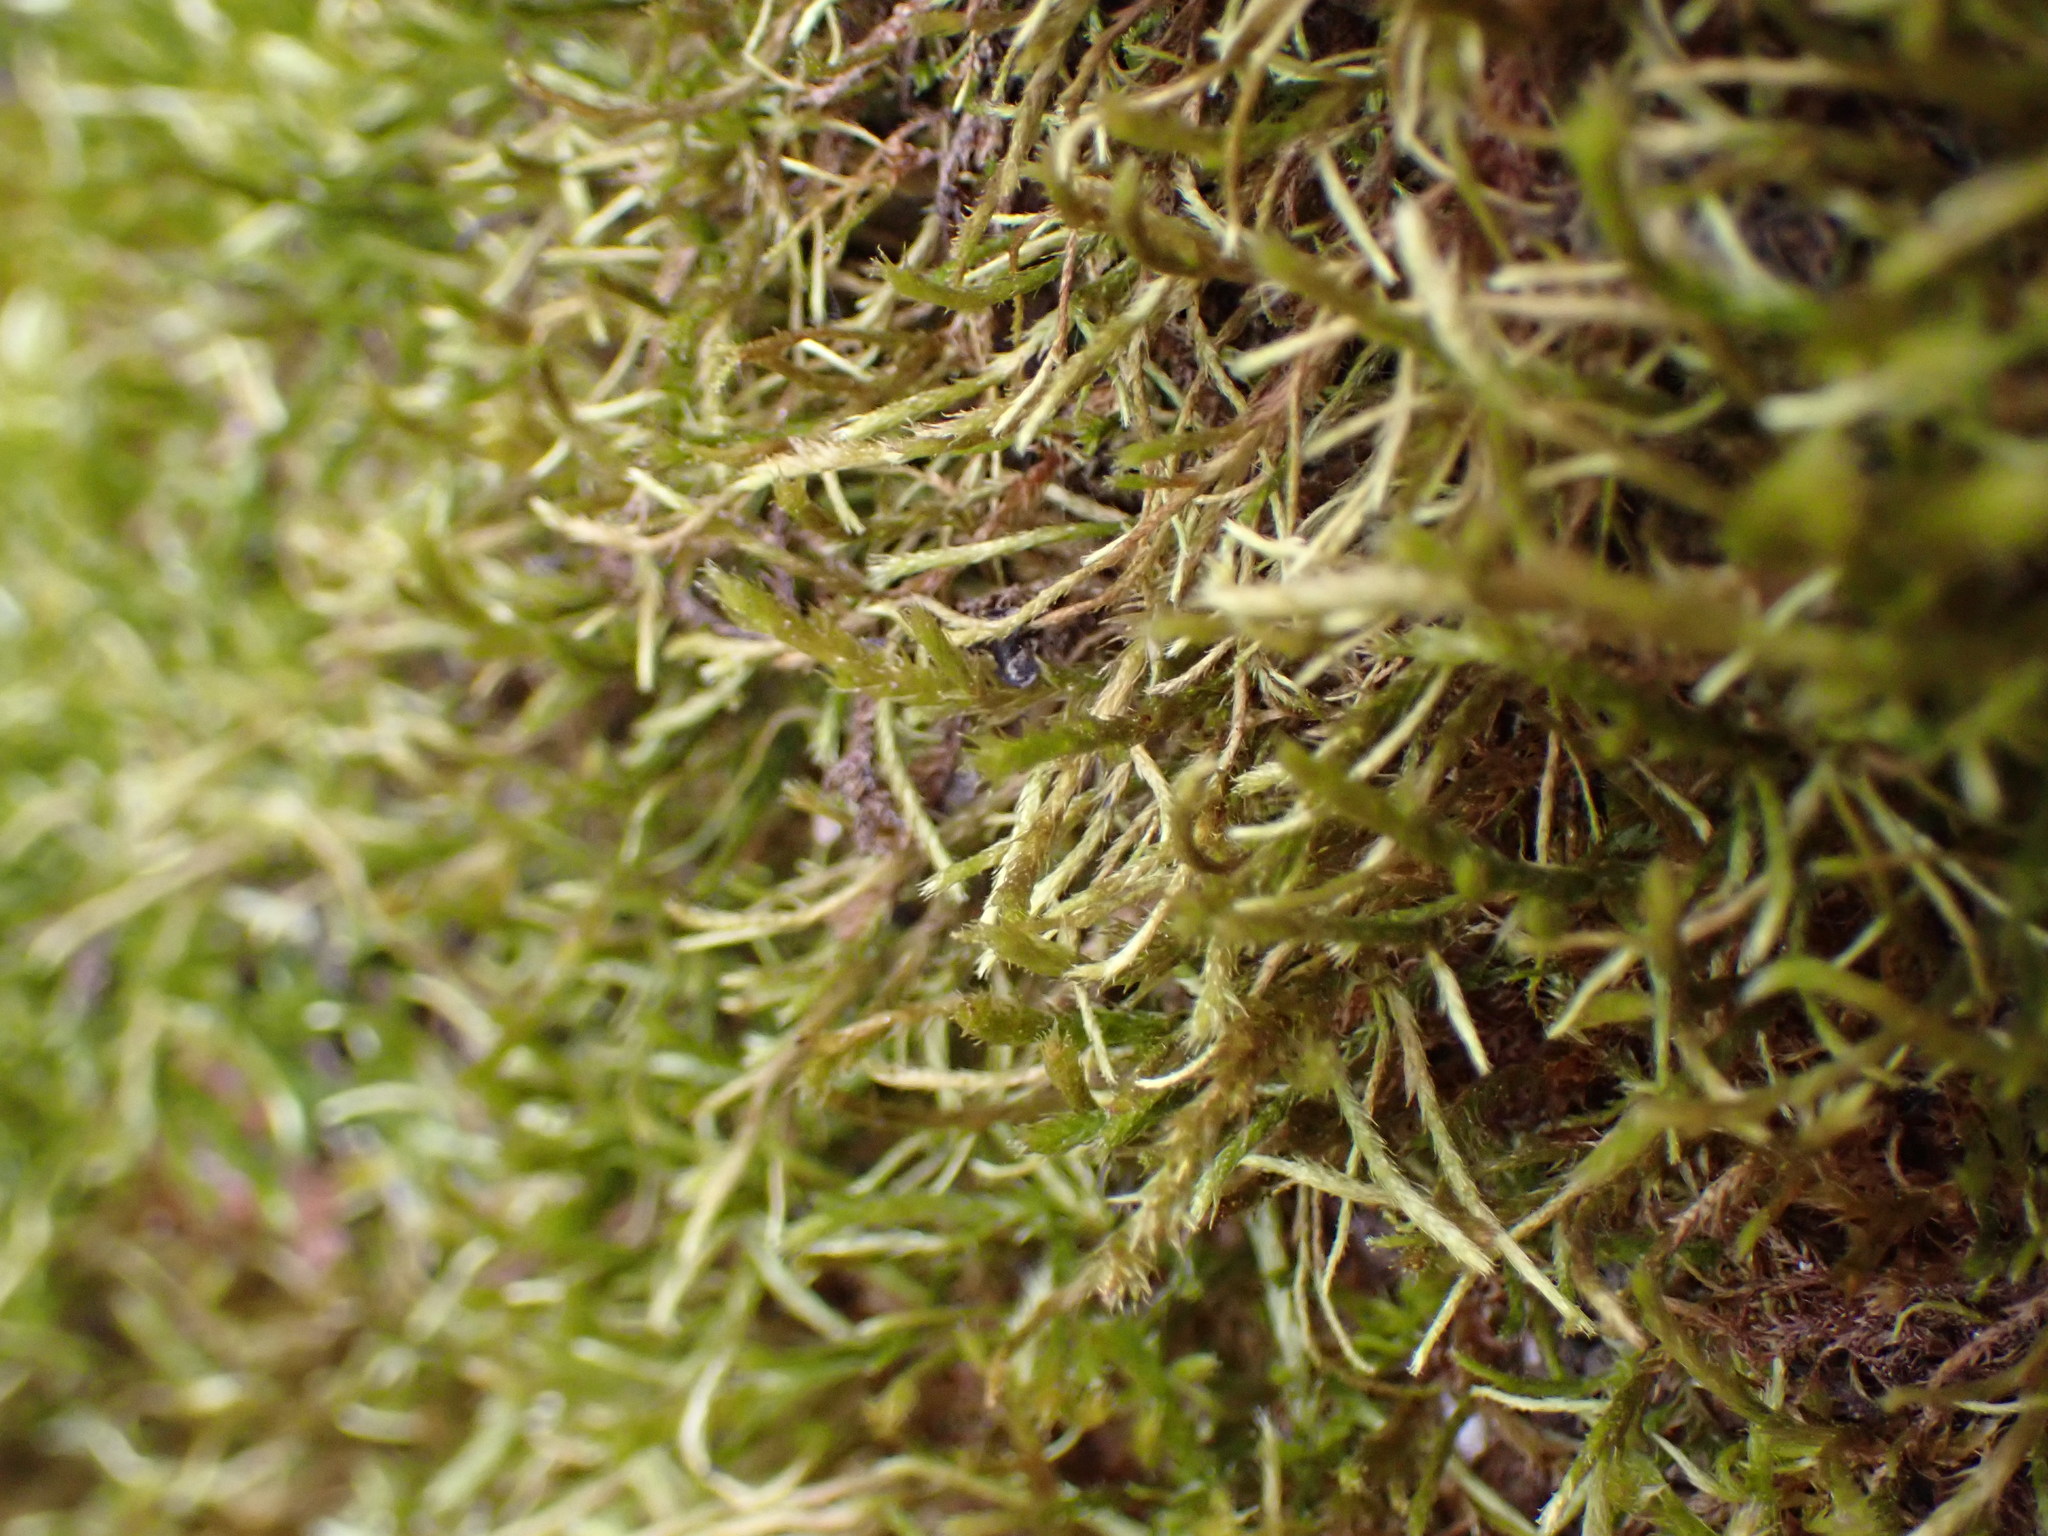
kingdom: Plantae
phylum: Bryophyta
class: Bryopsida
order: Hypnales
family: Antitrichiaceae
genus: Antitrichia
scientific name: Antitrichia californica
